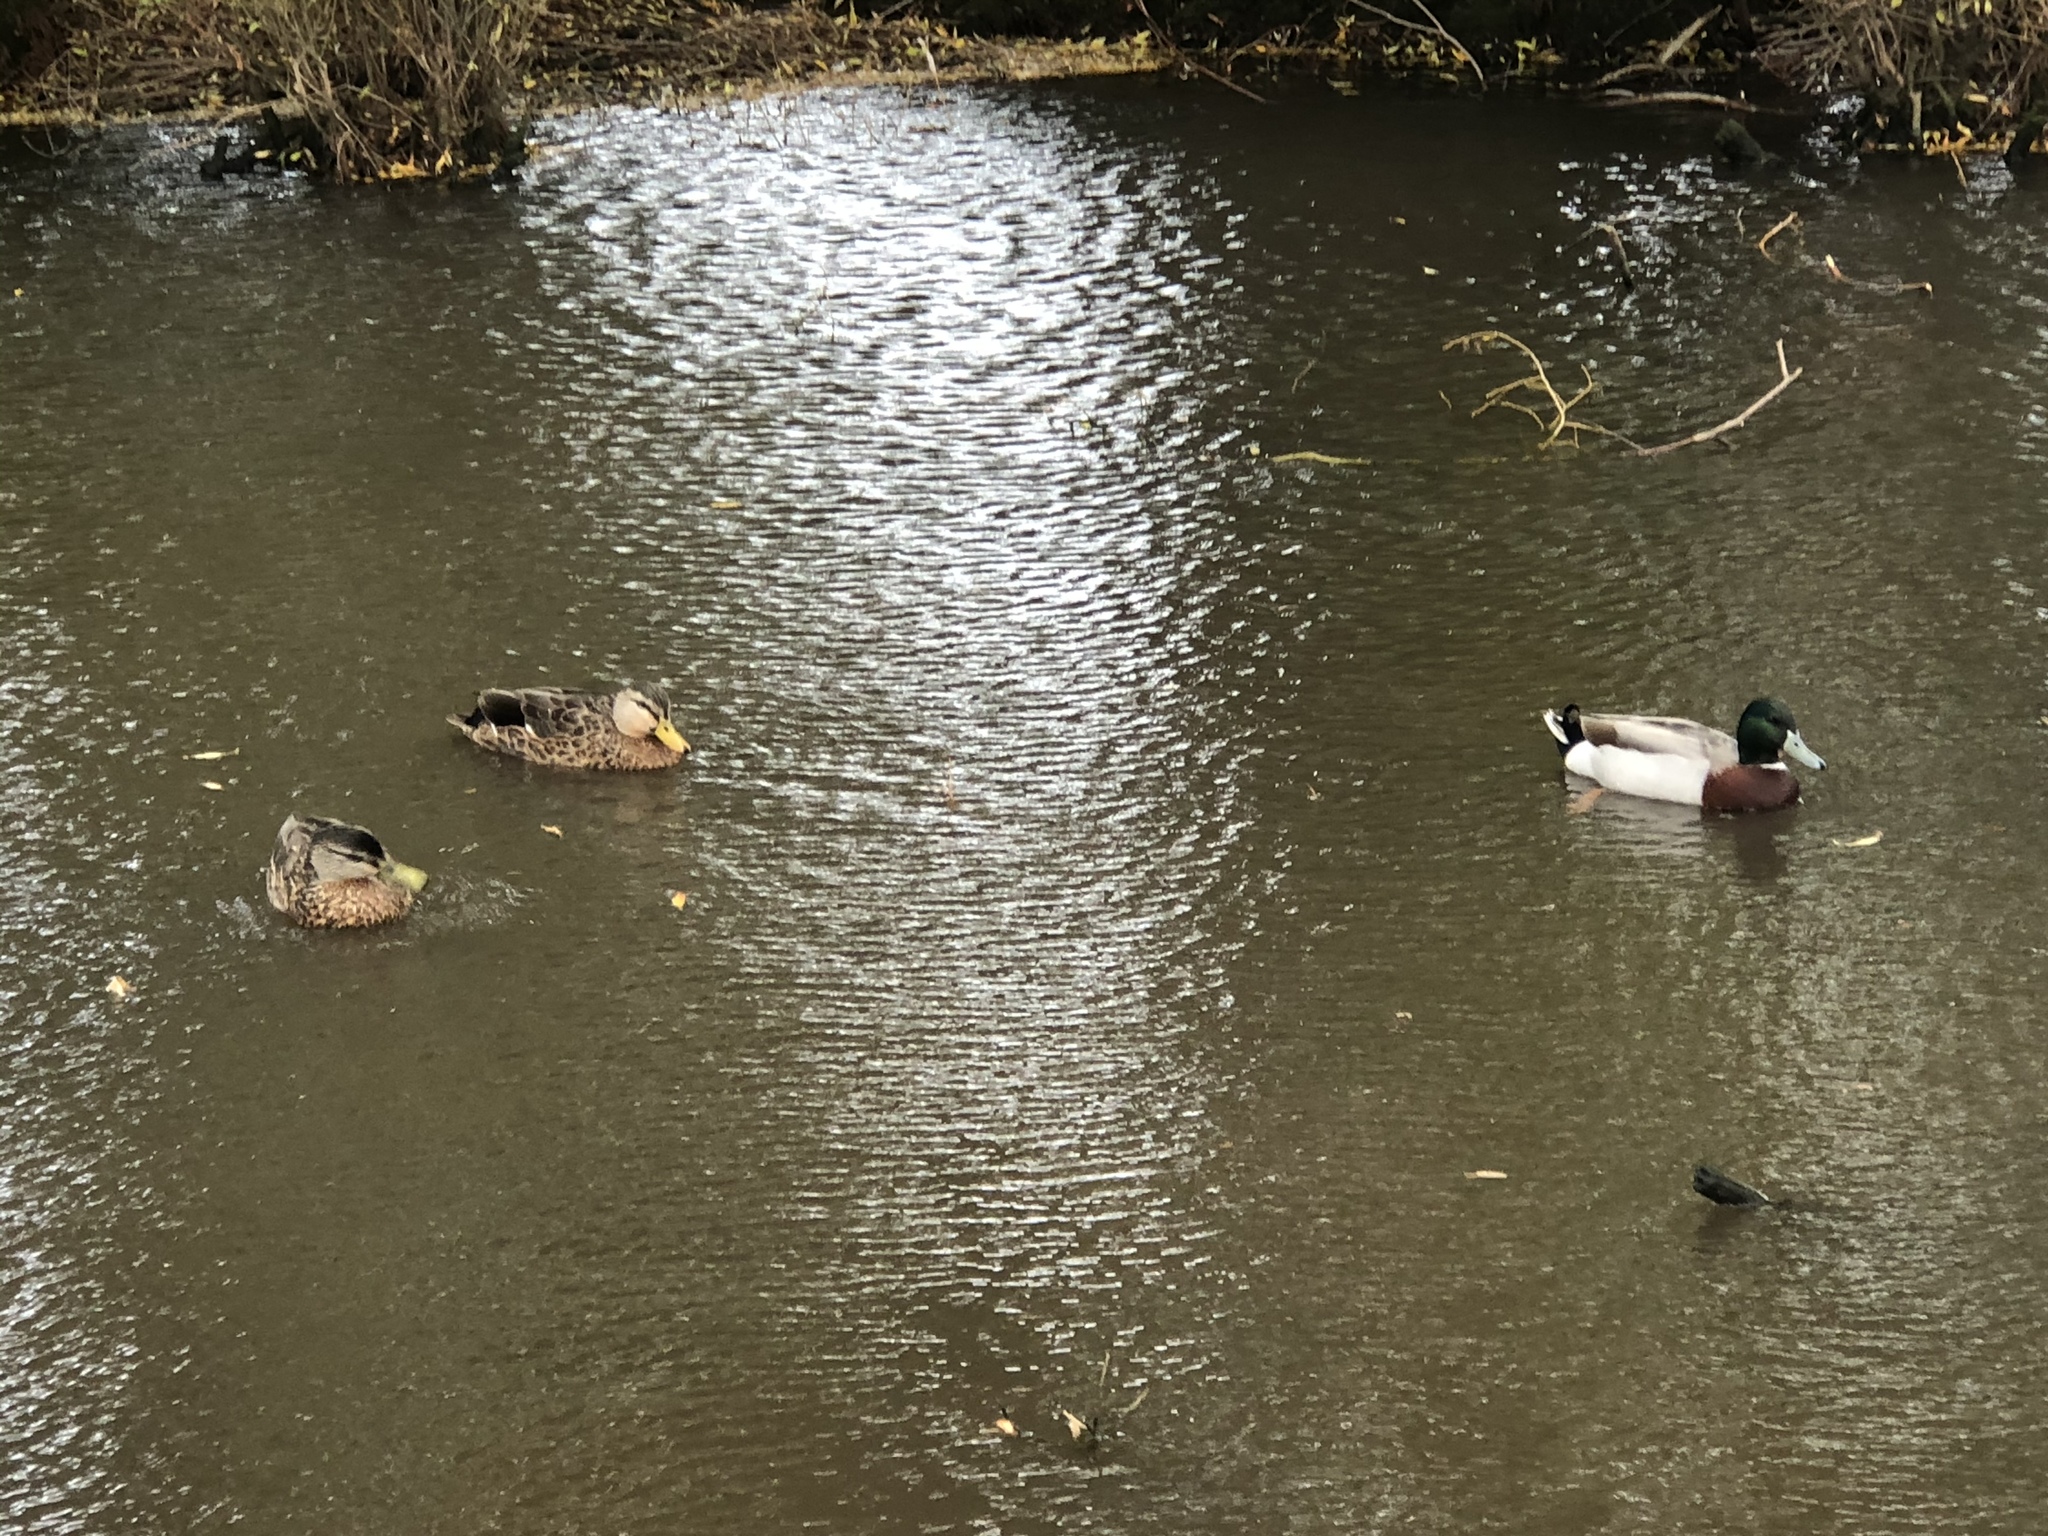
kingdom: Animalia
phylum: Chordata
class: Aves
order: Anseriformes
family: Anatidae
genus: Anas
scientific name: Anas
